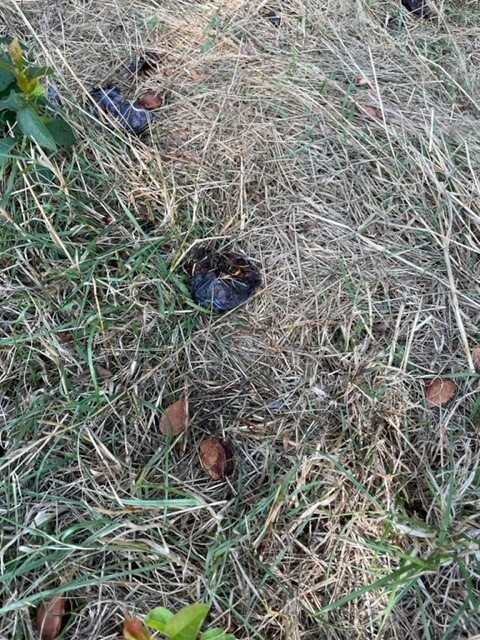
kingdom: Animalia
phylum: Arthropoda
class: Insecta
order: Hymenoptera
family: Vespidae
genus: Vespa
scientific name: Vespa velutina
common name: Asian hornet
